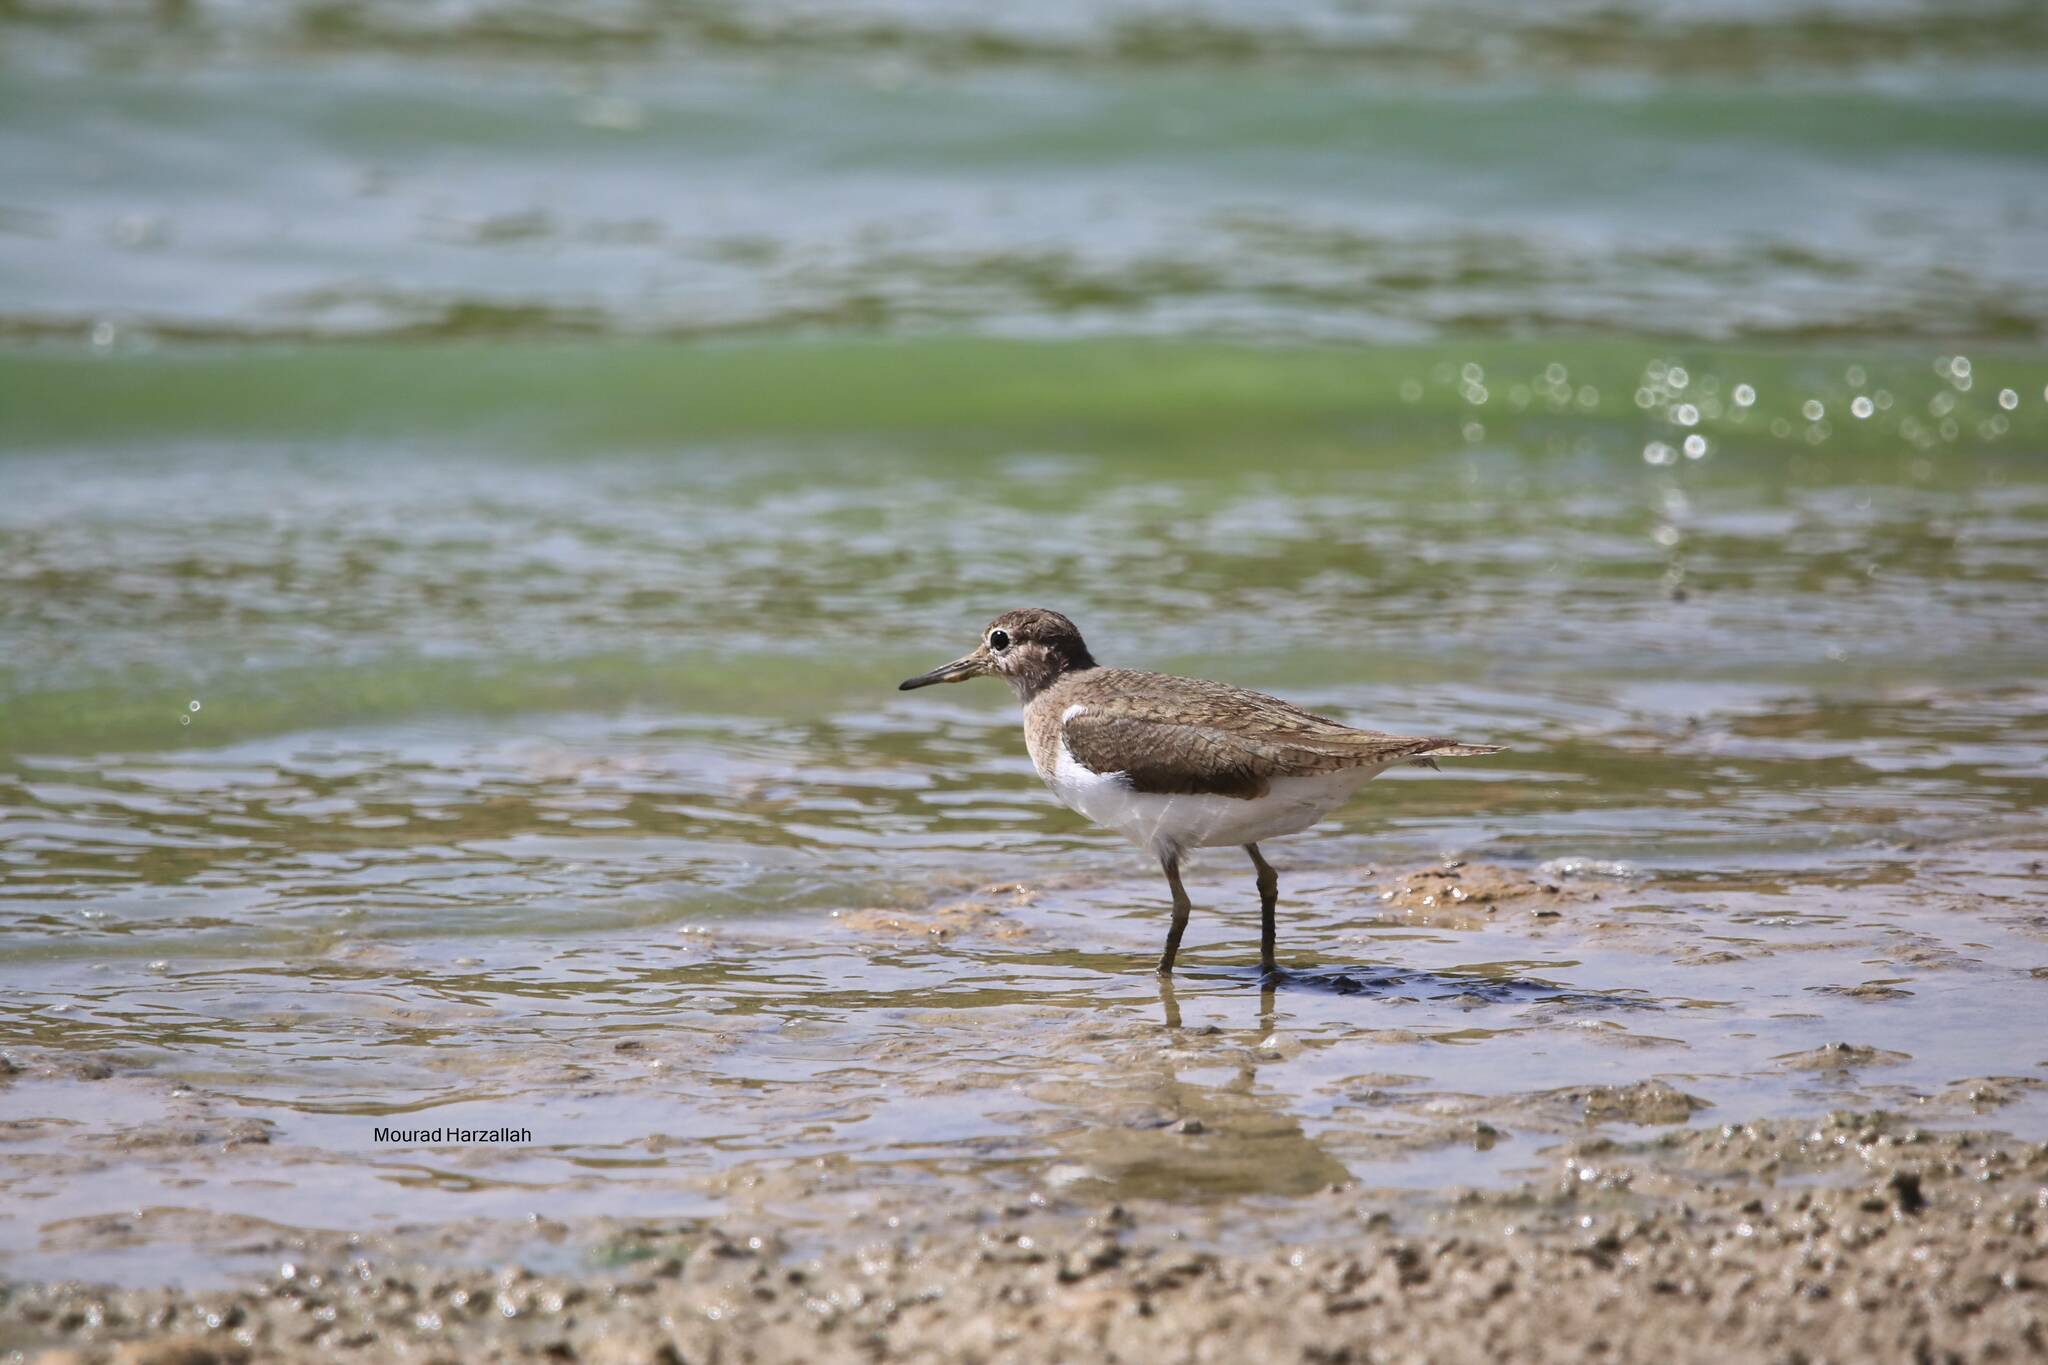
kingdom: Animalia
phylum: Chordata
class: Aves
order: Charadriiformes
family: Scolopacidae
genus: Actitis
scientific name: Actitis hypoleucos
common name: Common sandpiper
